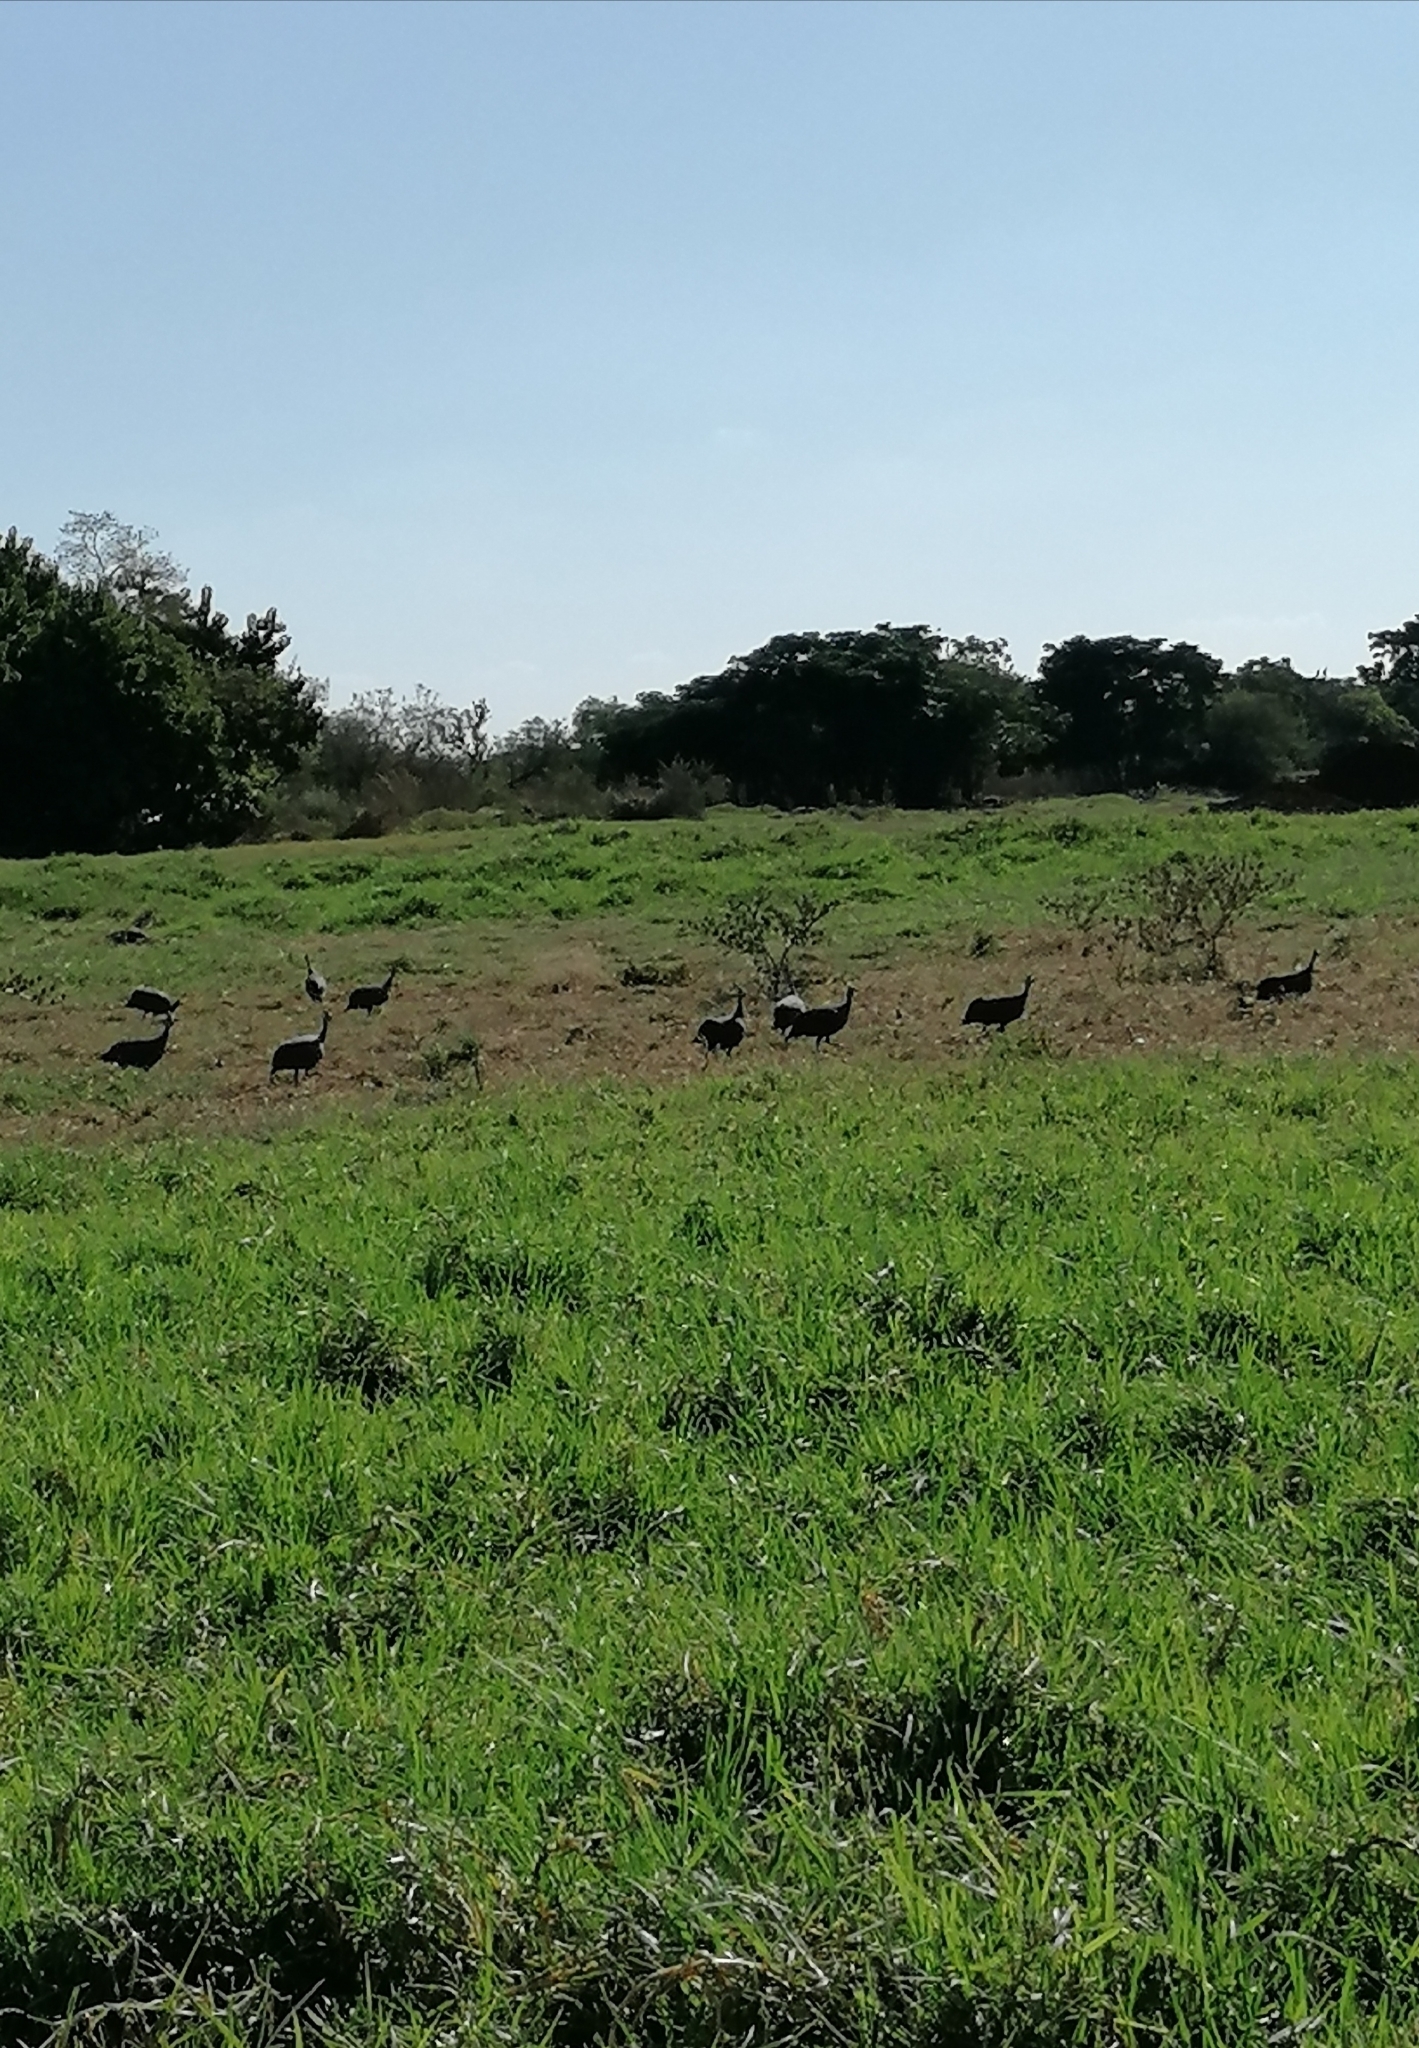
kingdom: Animalia
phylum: Chordata
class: Aves
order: Galliformes
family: Numididae
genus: Numida
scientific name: Numida meleagris
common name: Helmeted guineafowl
